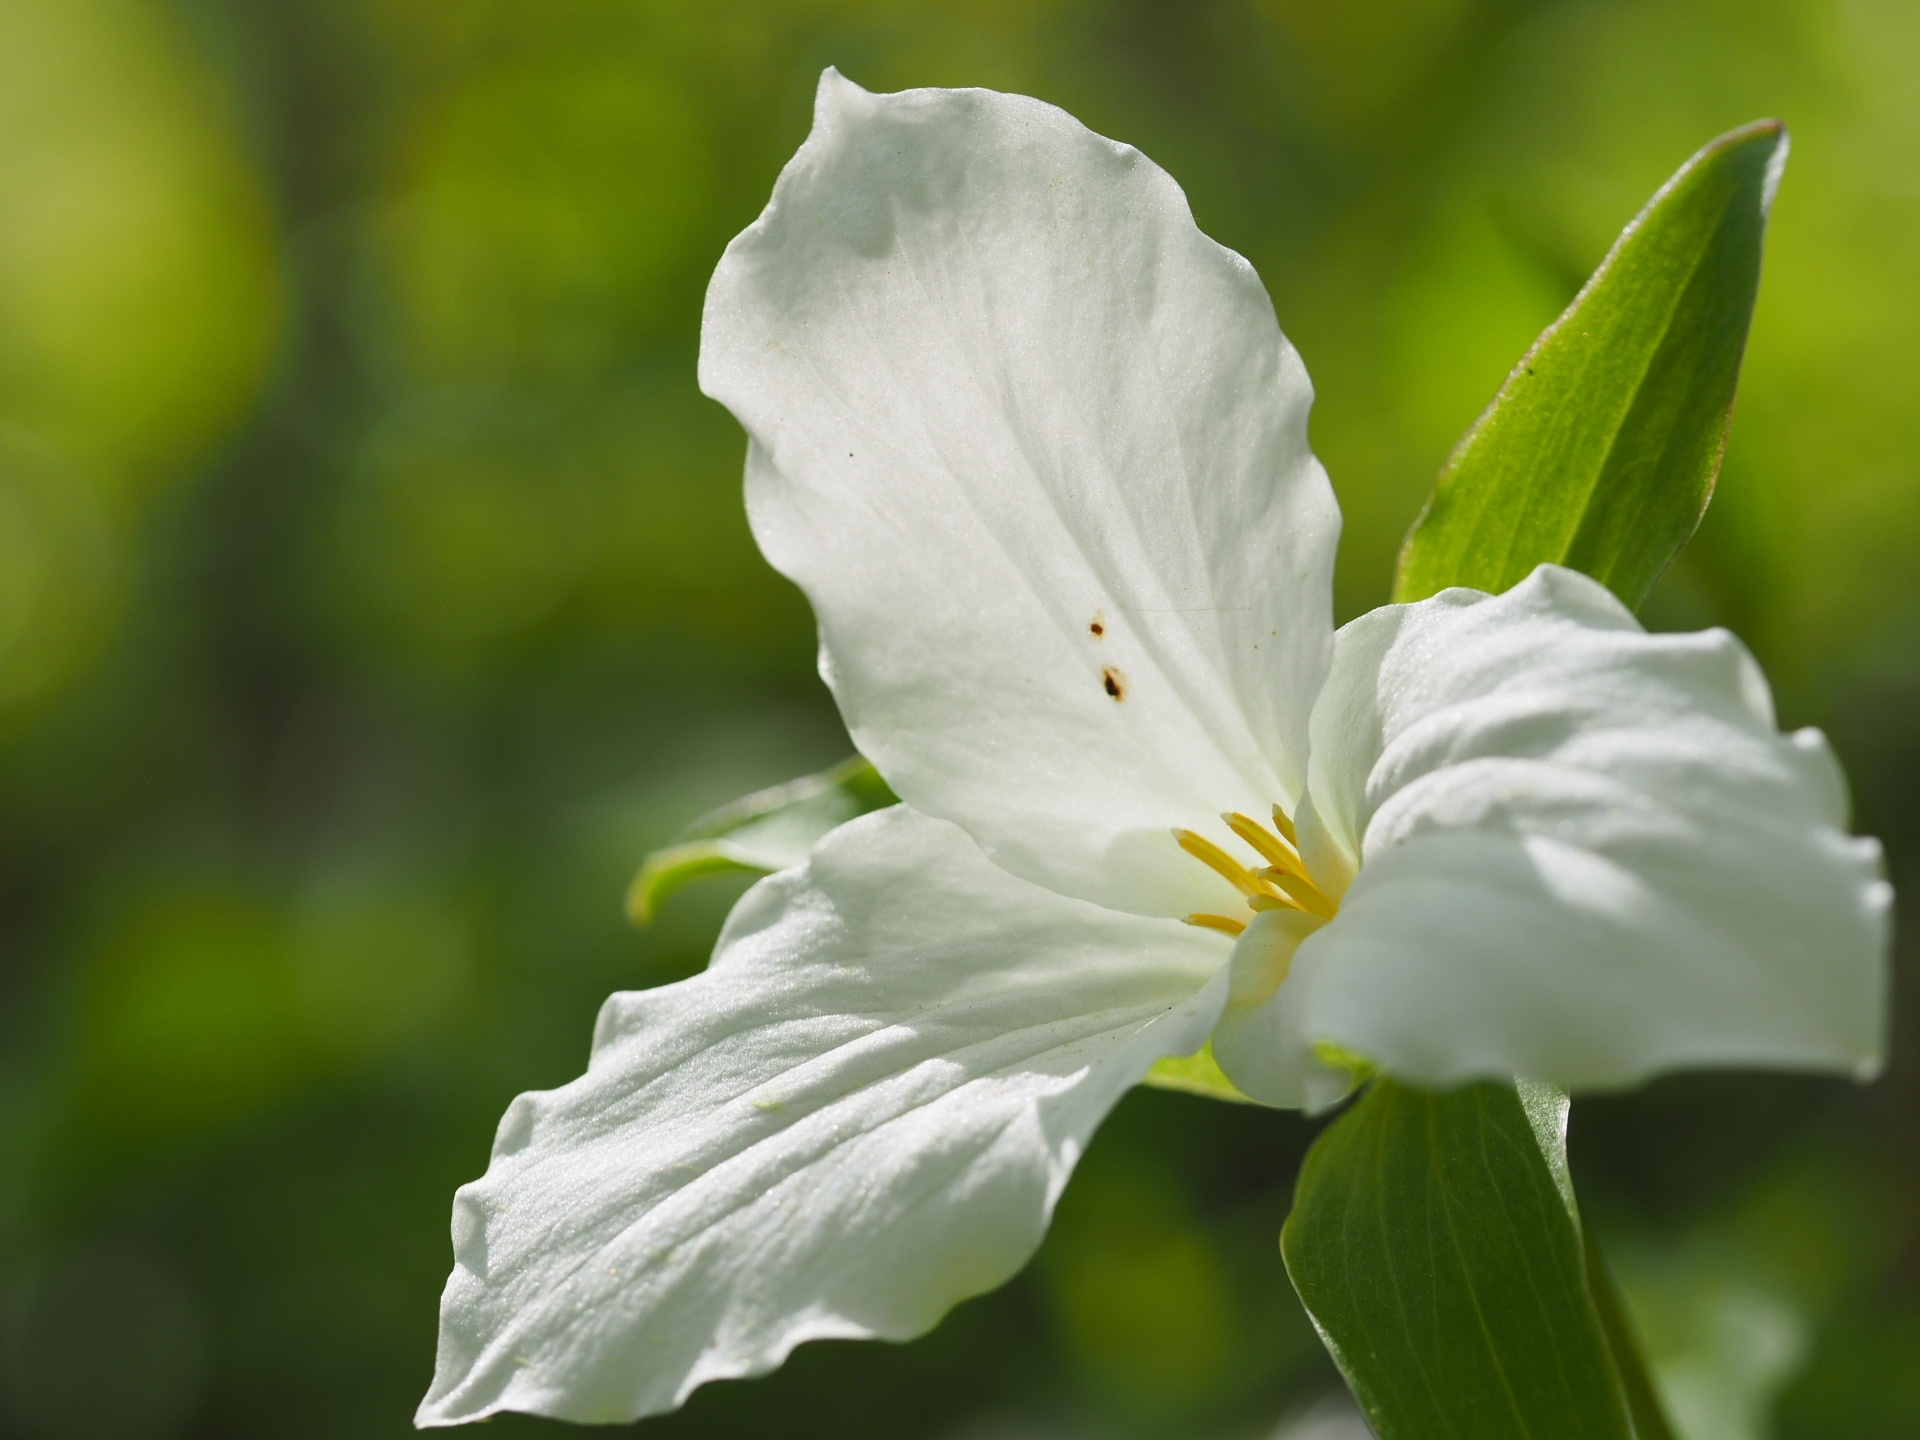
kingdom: Plantae
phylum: Tracheophyta
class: Liliopsida
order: Liliales
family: Melanthiaceae
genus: Trillium
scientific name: Trillium grandiflorum
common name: Great white trillium
